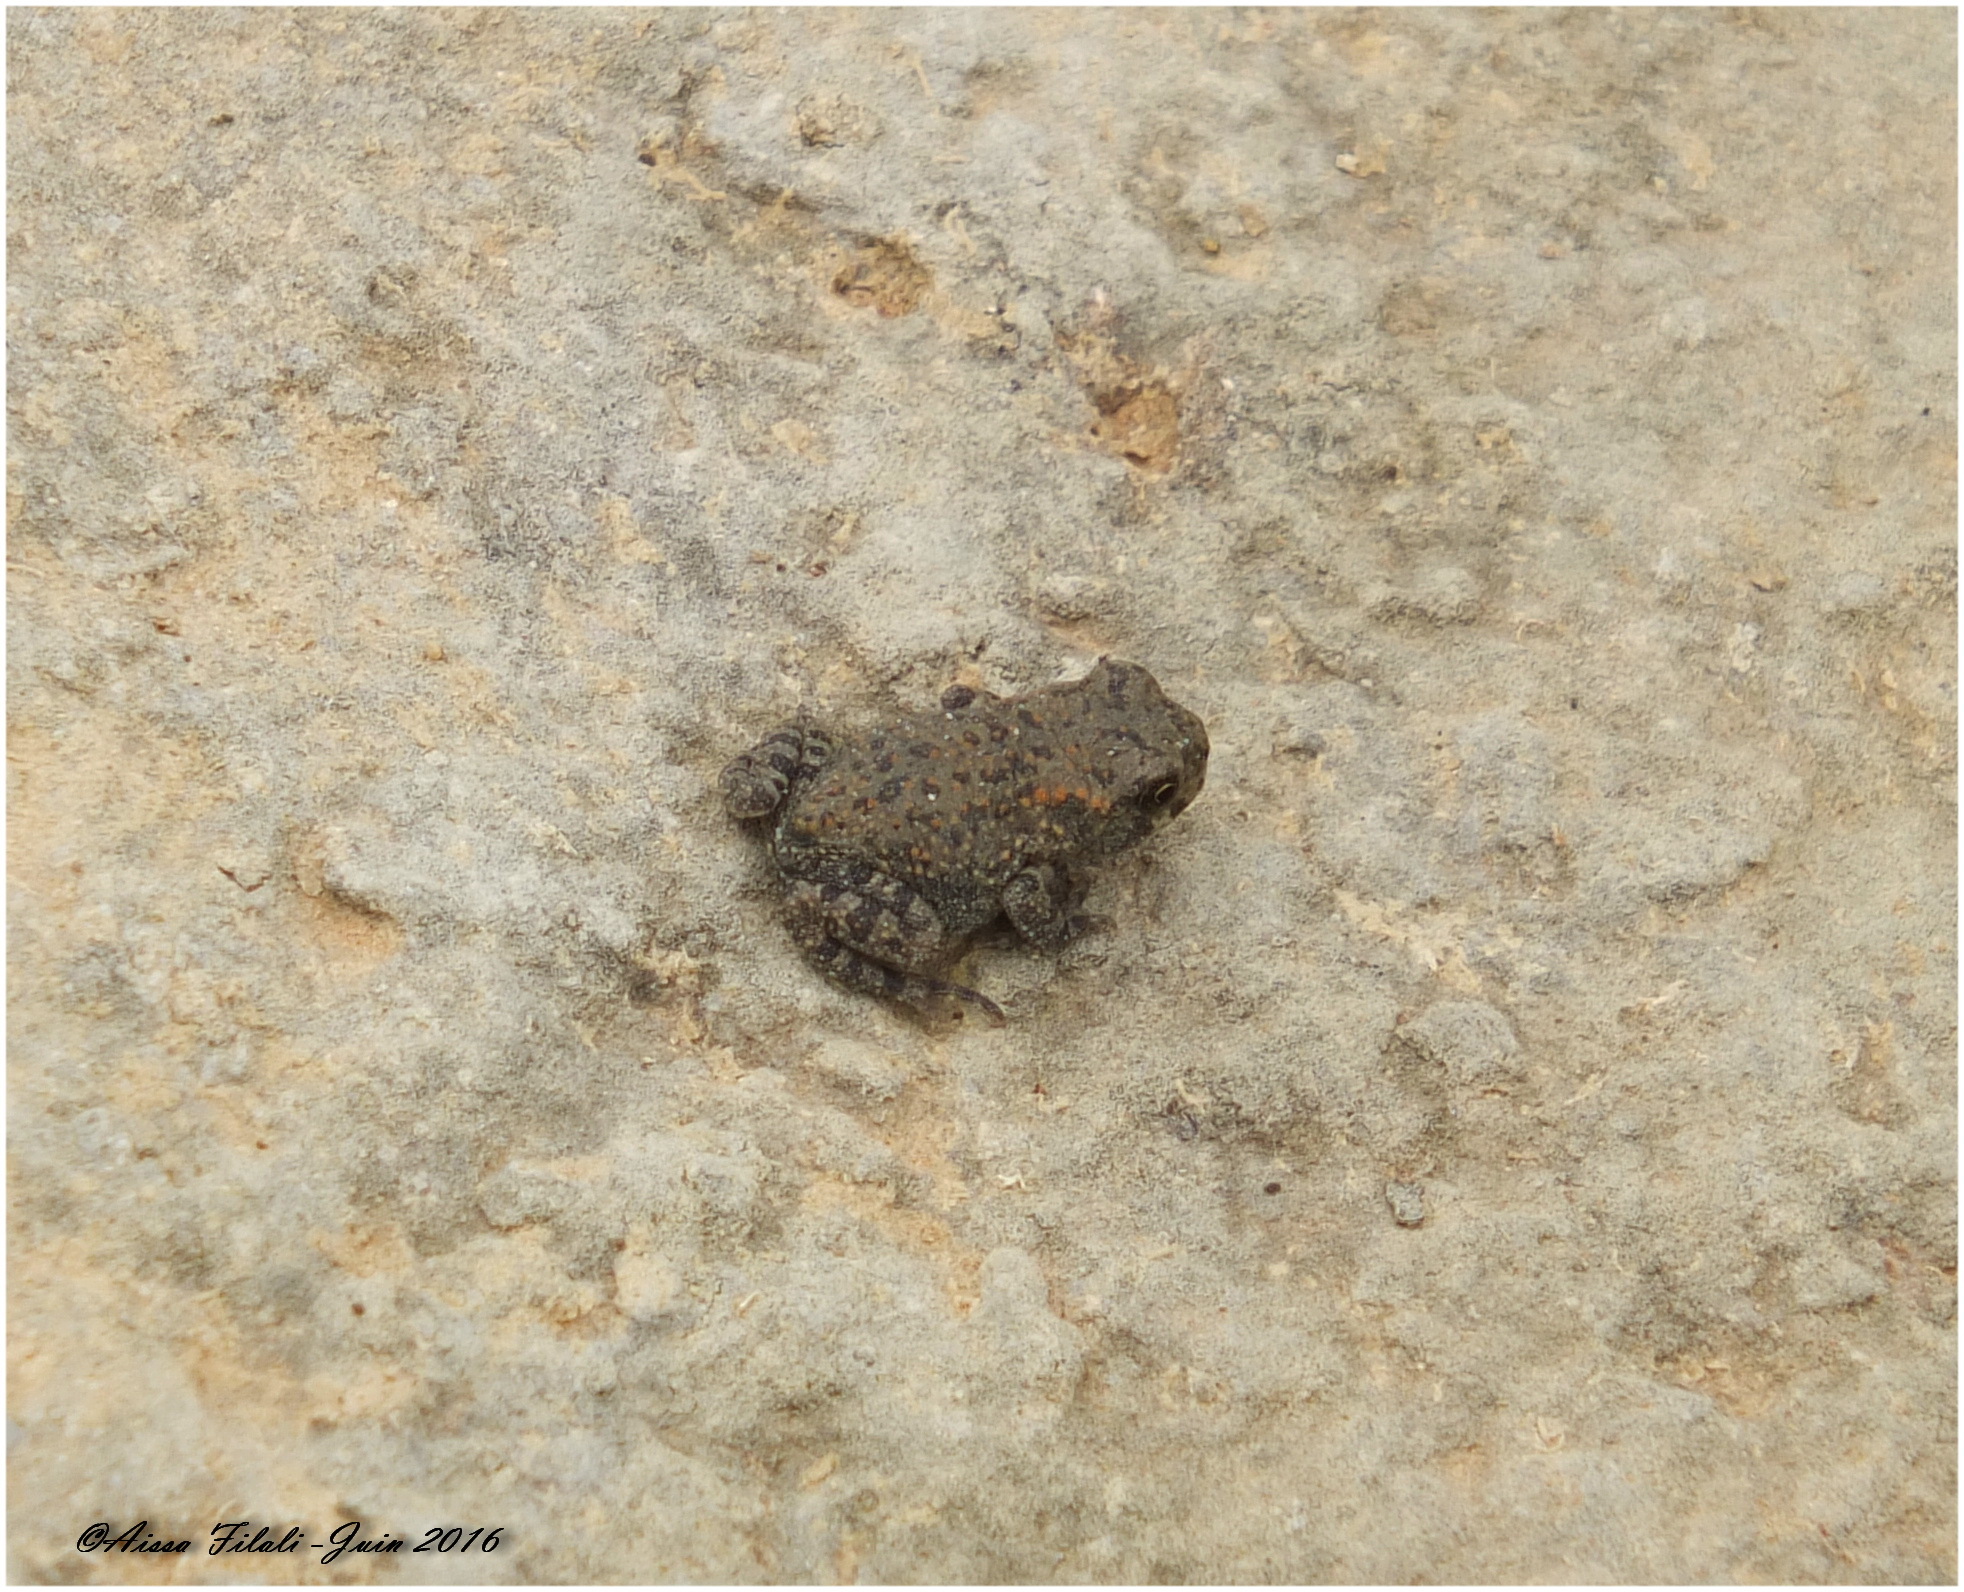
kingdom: Animalia
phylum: Chordata
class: Amphibia
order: Anura
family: Bufonidae
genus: Bufotes
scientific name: Bufotes boulengeri
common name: African green toad
